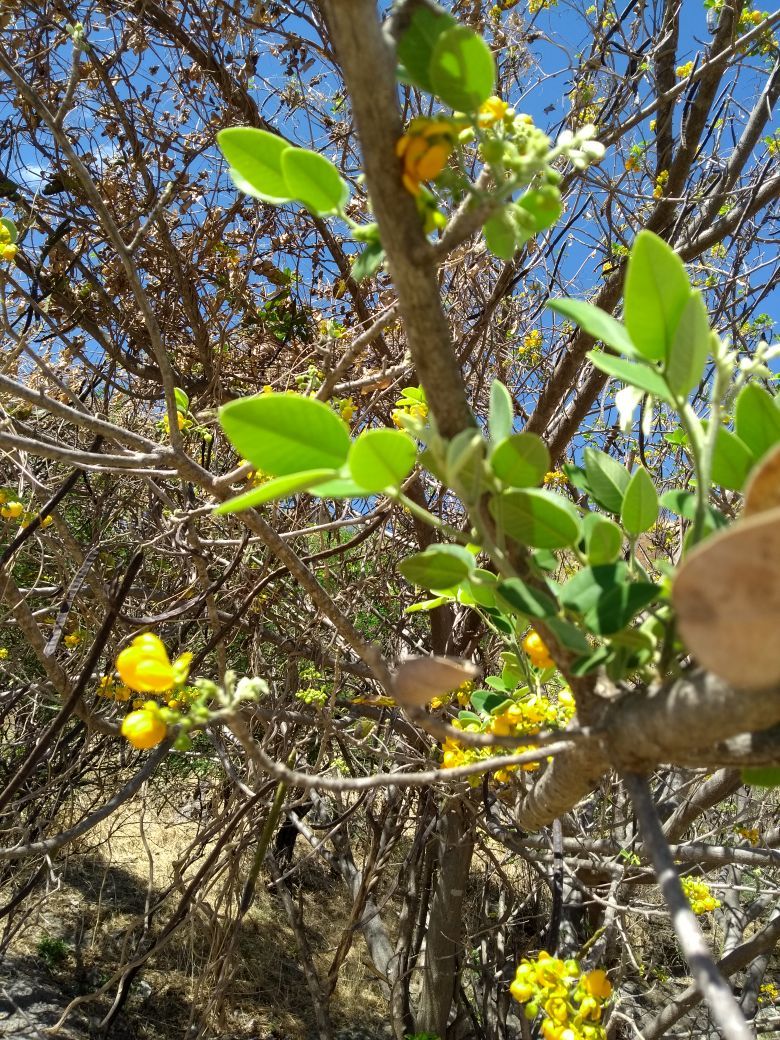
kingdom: Plantae
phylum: Tracheophyta
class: Magnoliopsida
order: Fabales
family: Fabaceae
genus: Senna
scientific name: Senna atomaria
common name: Flor de san jose
